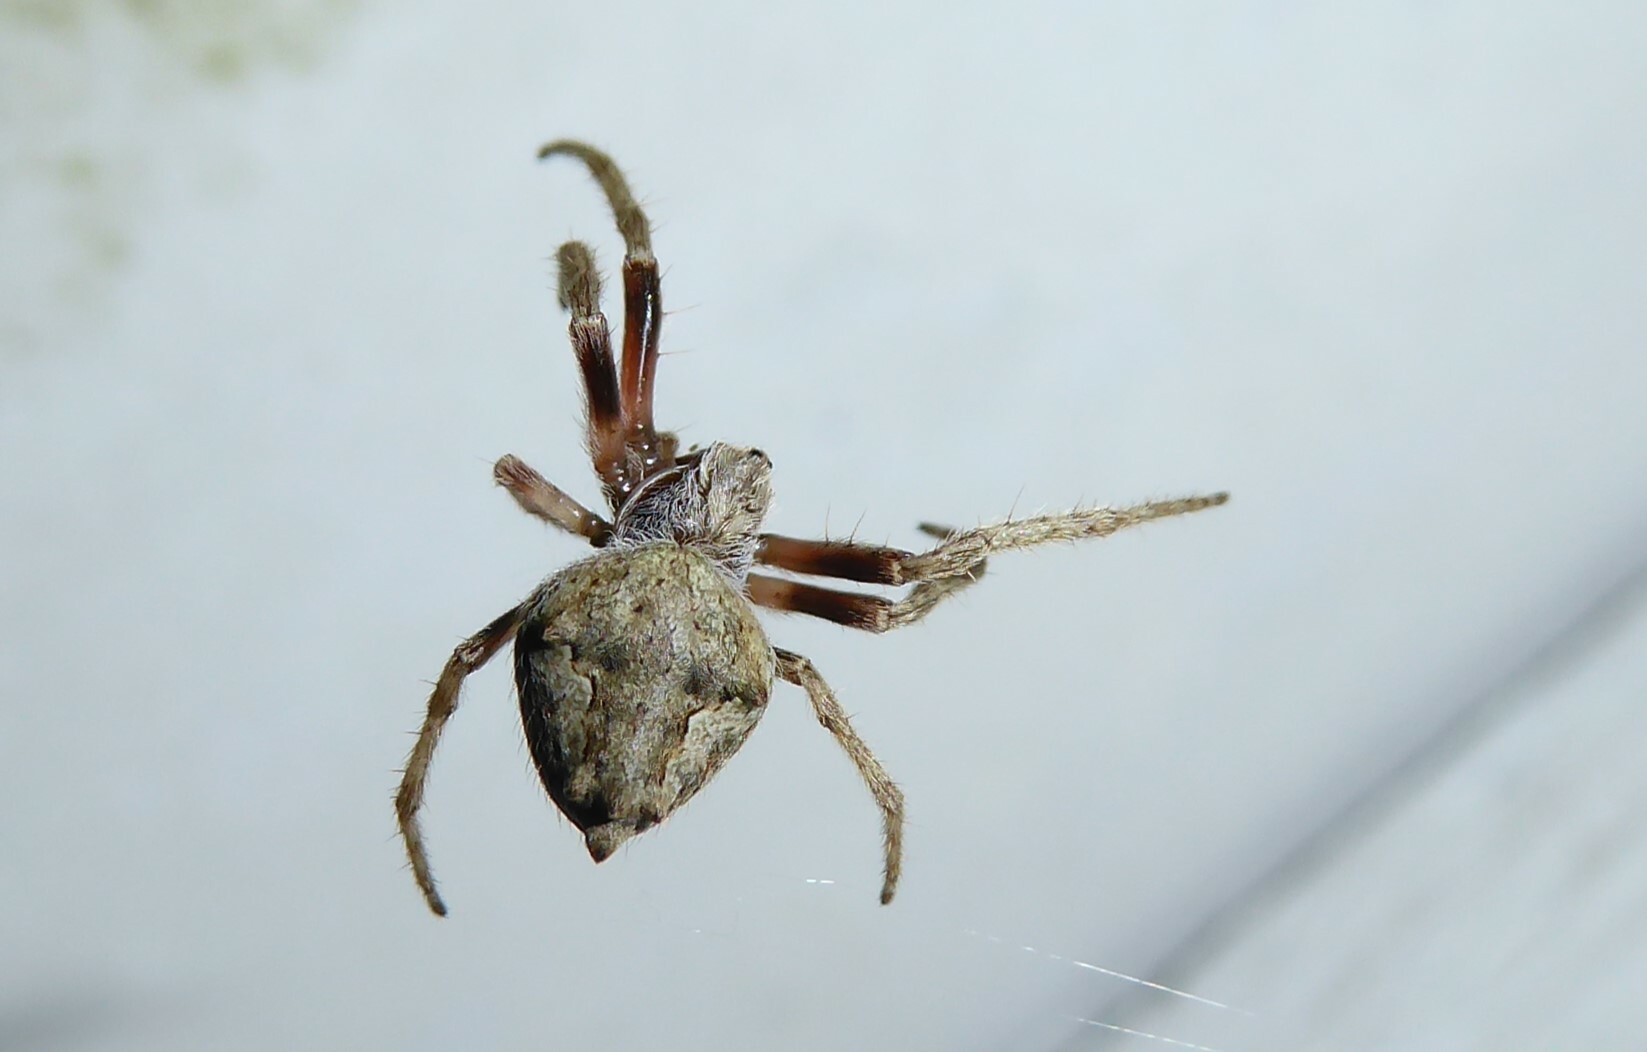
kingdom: Animalia
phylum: Arthropoda
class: Arachnida
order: Araneae
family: Araneidae
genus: Eriophora
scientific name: Eriophora pustulosa
